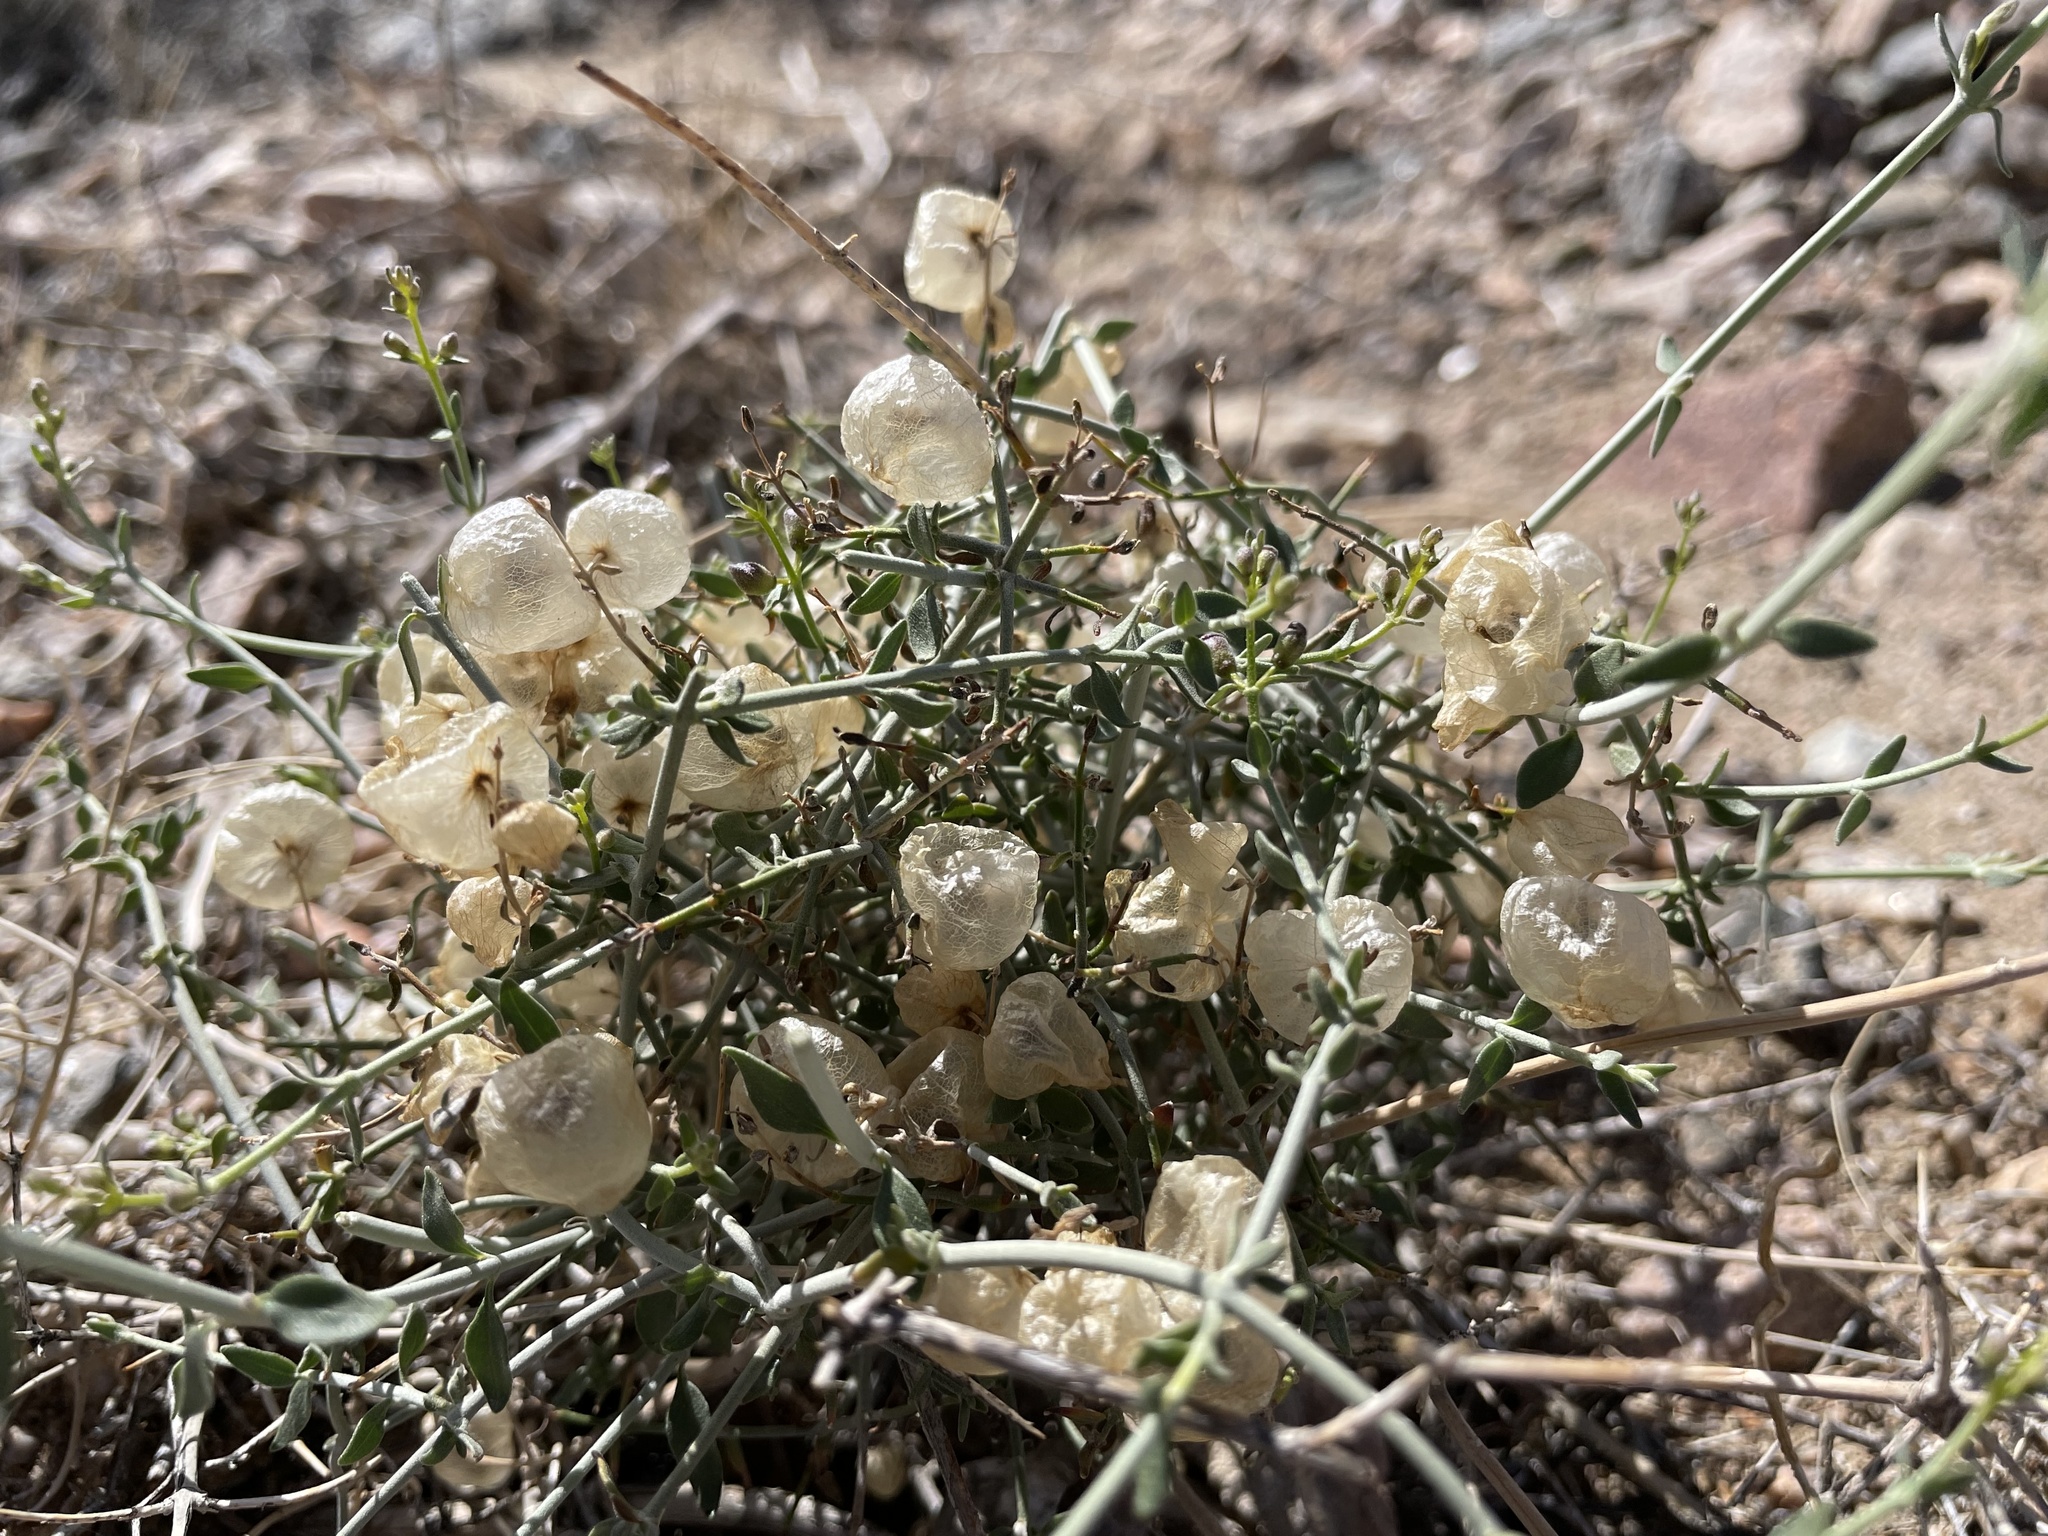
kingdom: Plantae
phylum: Tracheophyta
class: Magnoliopsida
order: Lamiales
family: Lamiaceae
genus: Scutellaria
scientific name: Scutellaria mexicana
